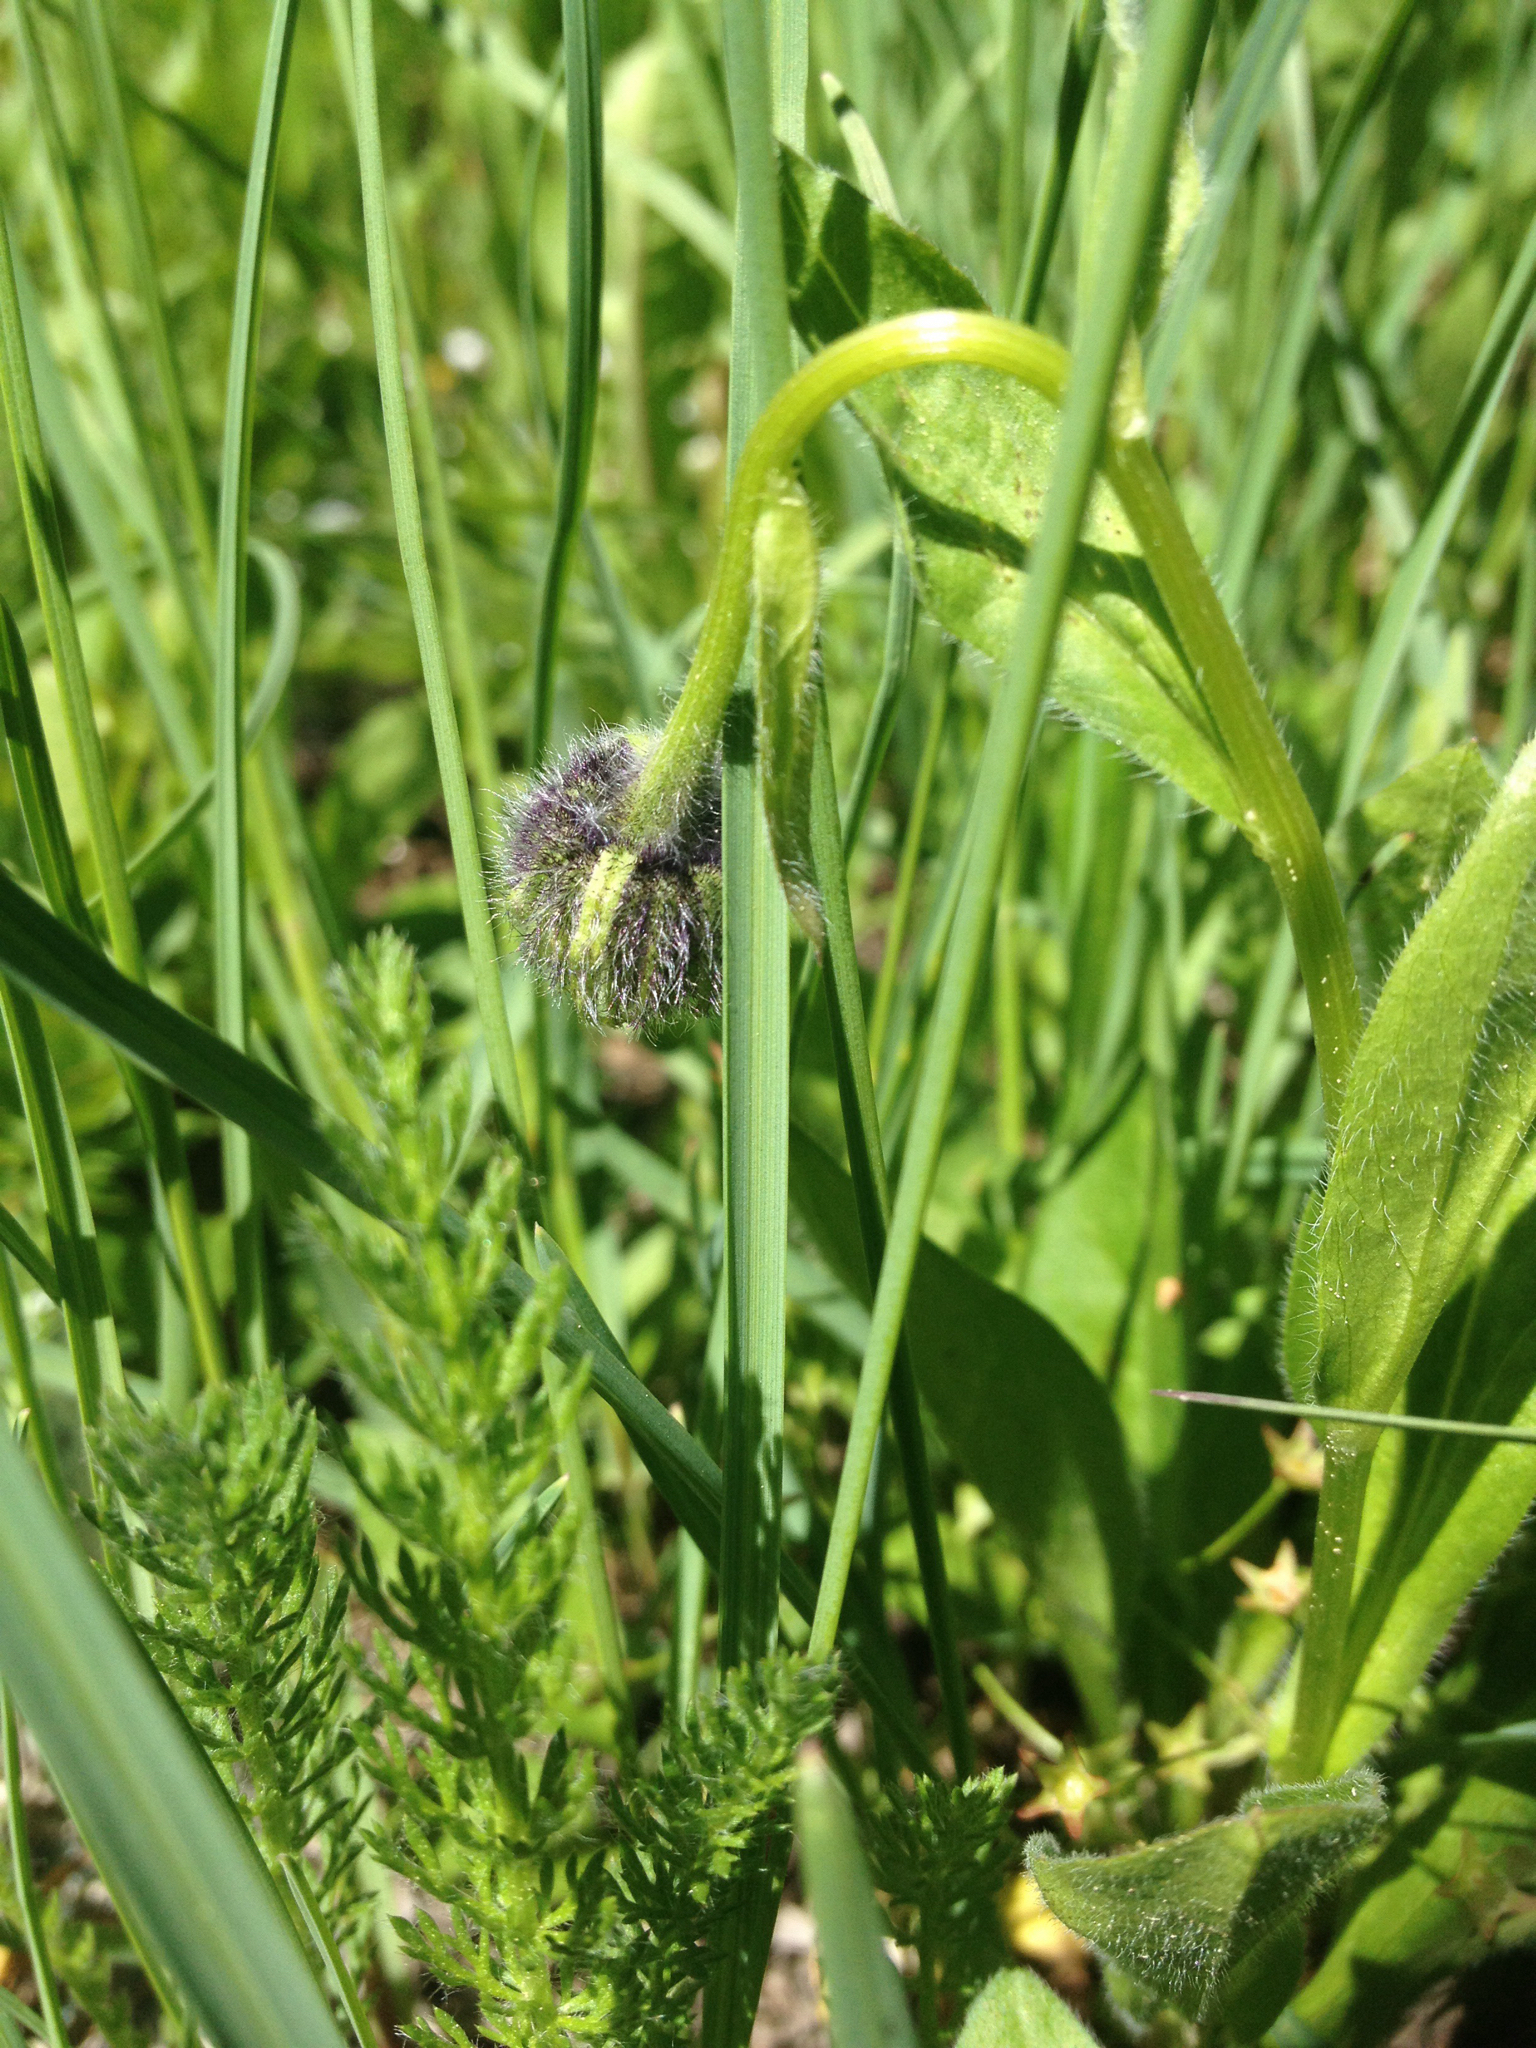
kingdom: Plantae
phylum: Tracheophyta
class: Magnoliopsida
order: Asterales
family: Asteraceae
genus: Erigeron
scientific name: Erigeron melanocephalus
